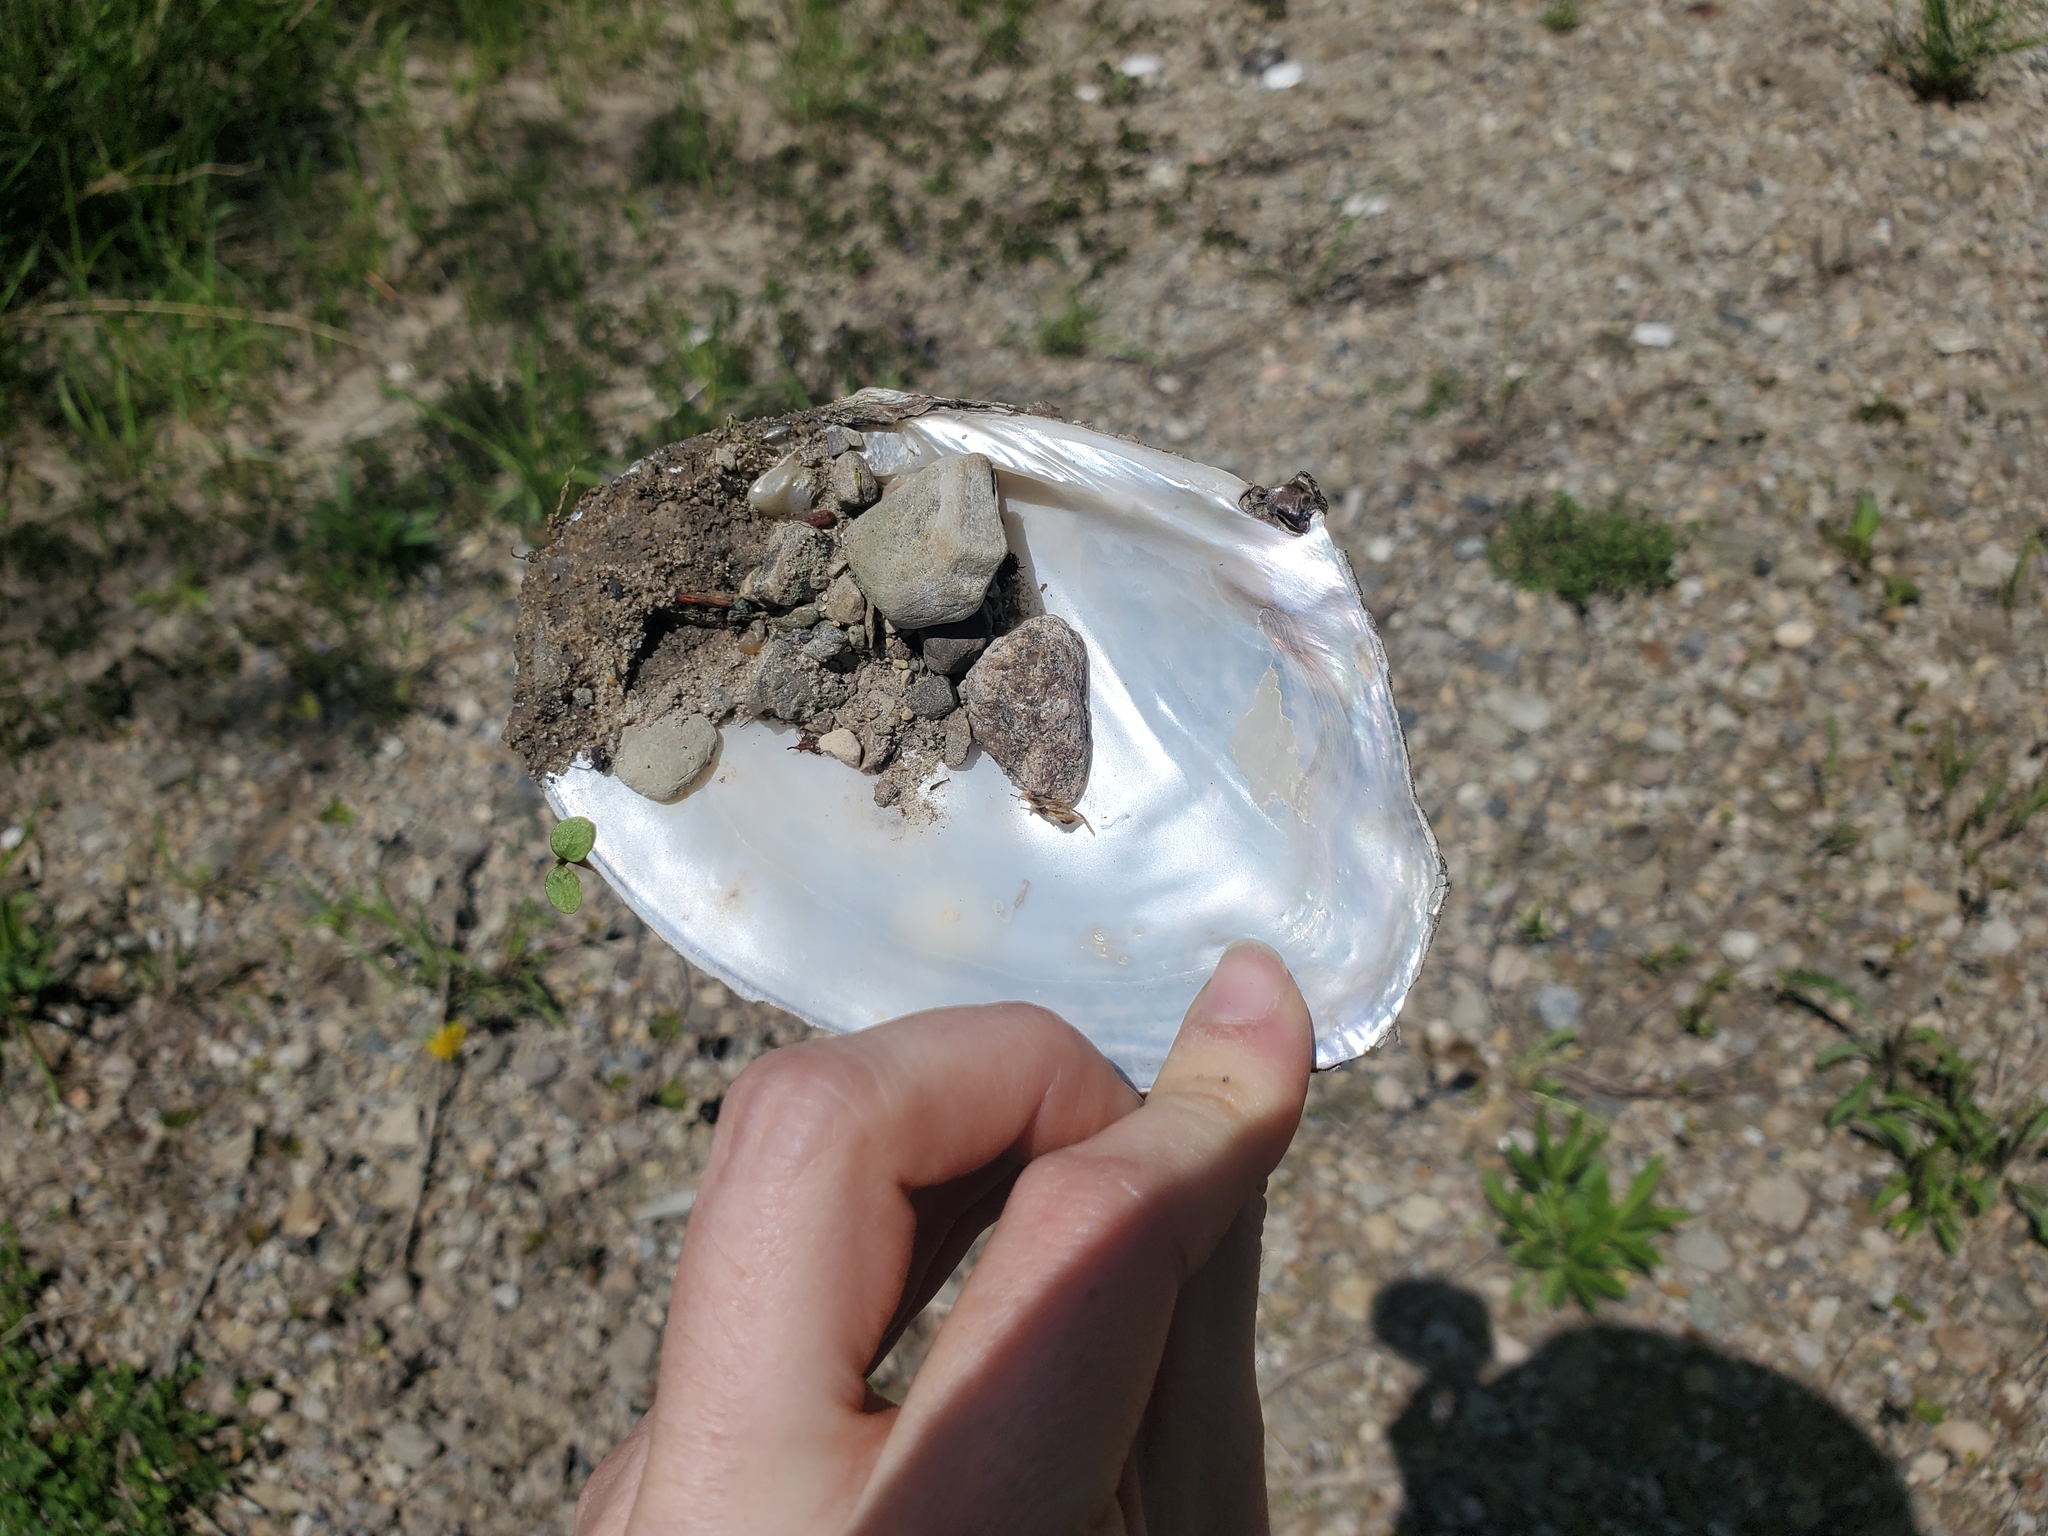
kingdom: Animalia
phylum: Mollusca
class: Bivalvia
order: Unionida
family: Unionidae
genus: Lasmigona
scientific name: Lasmigona complanata
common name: White heelsplitter
